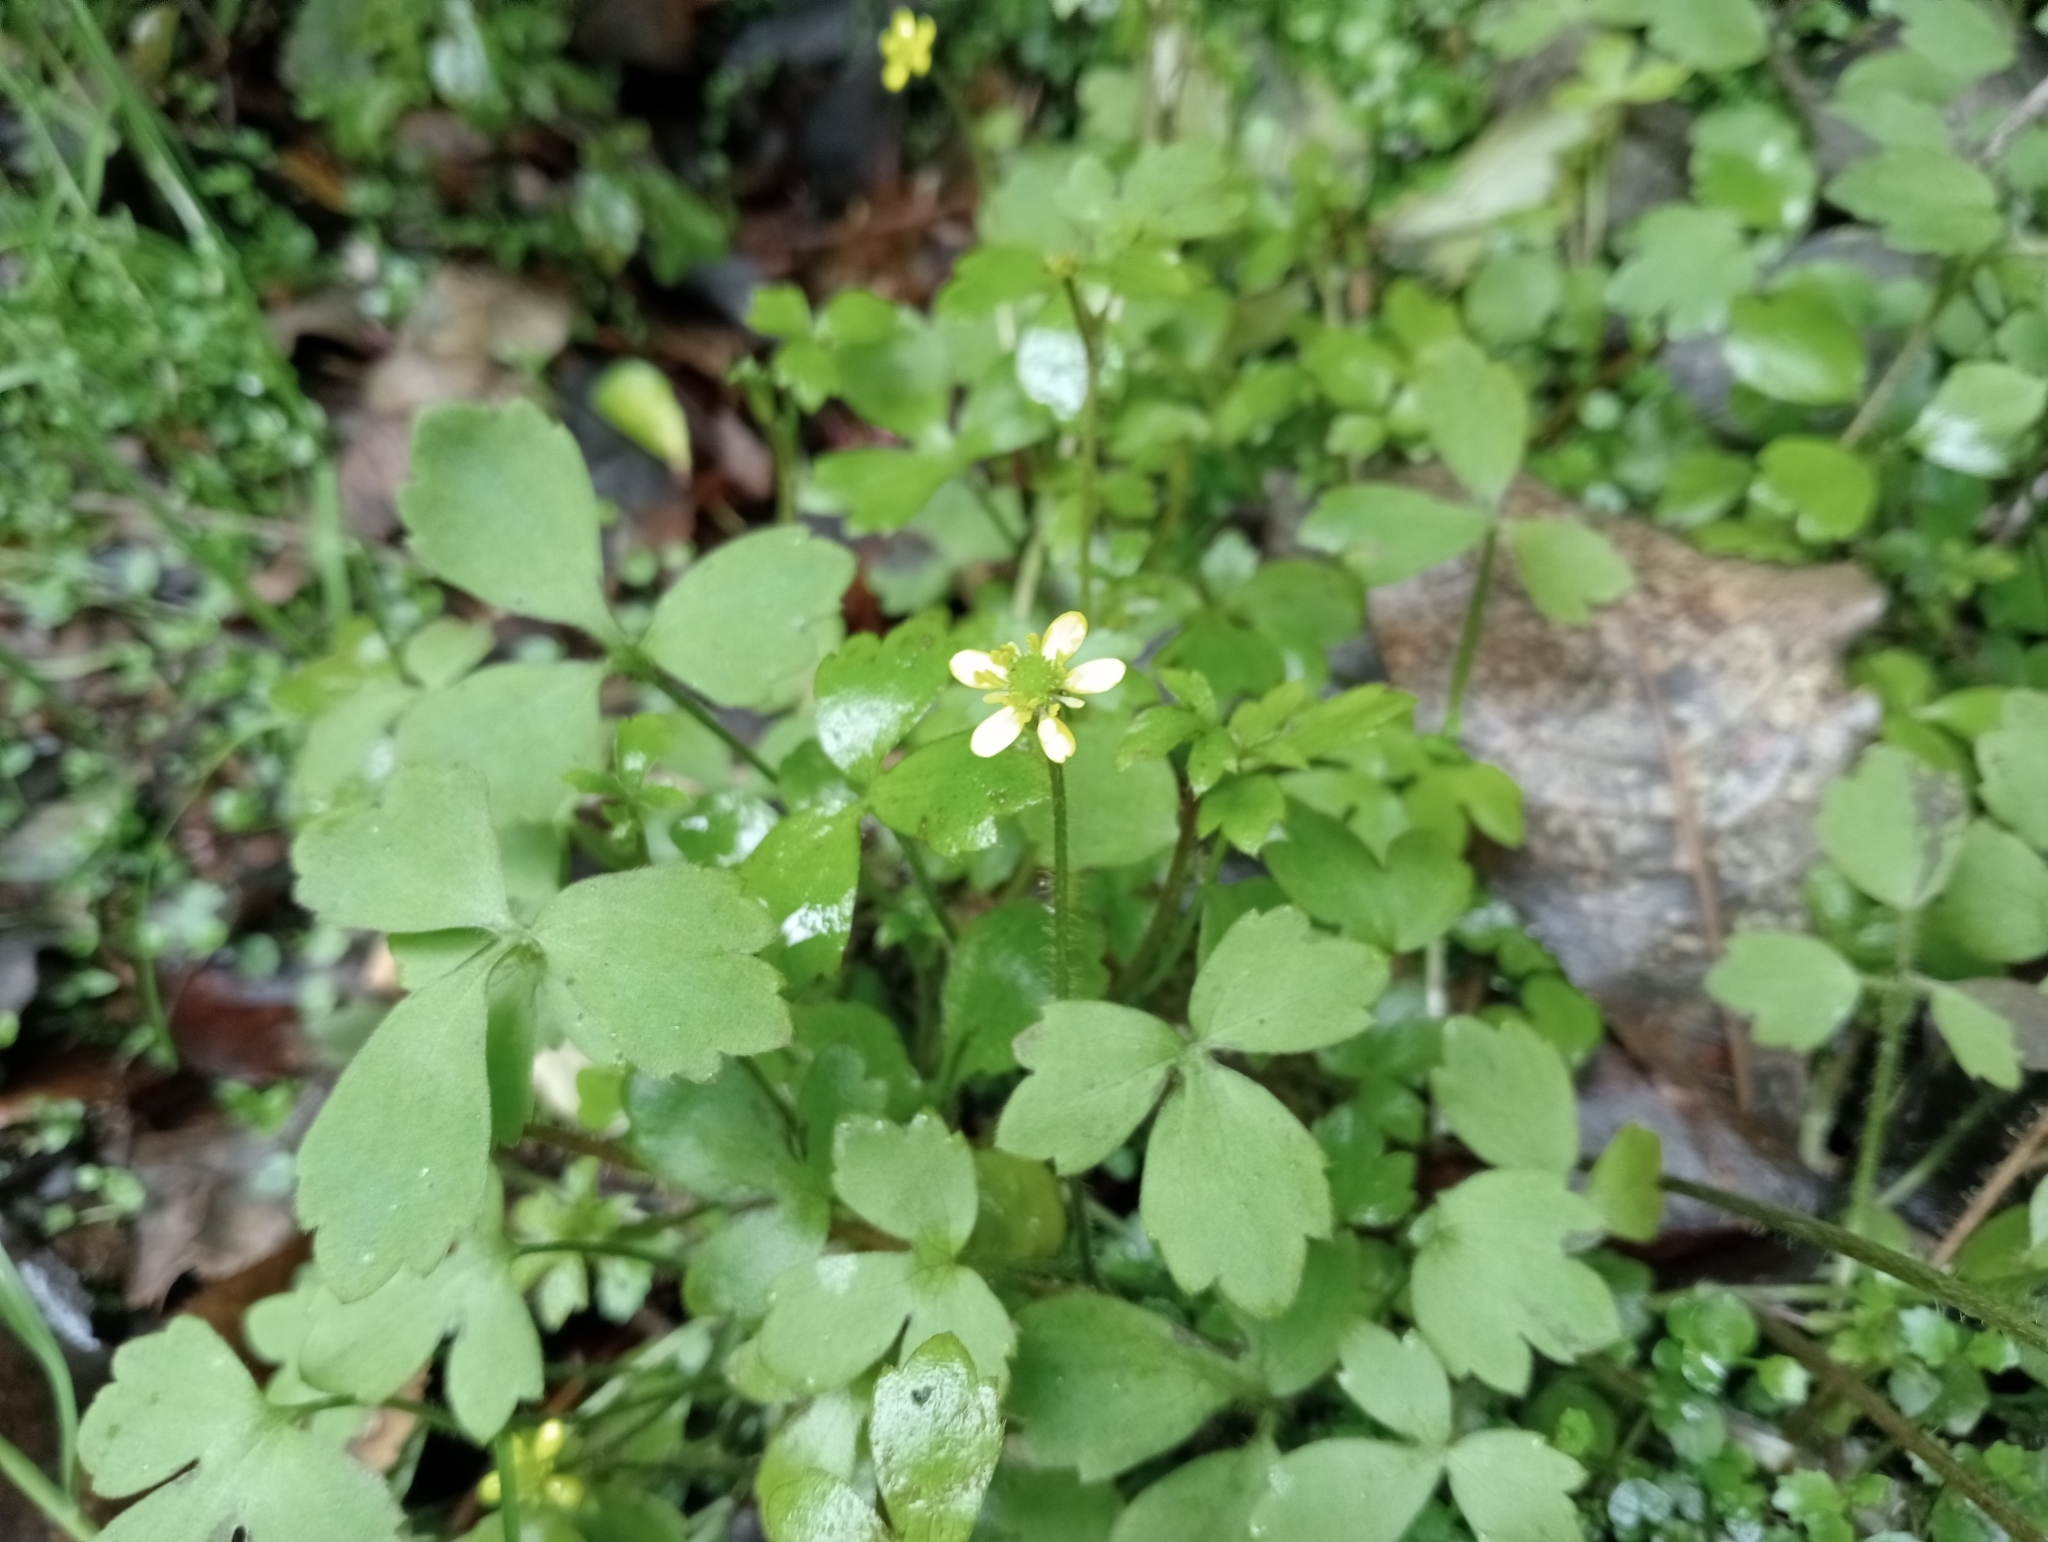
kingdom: Plantae
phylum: Tracheophyta
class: Magnoliopsida
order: Ranunculales
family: Ranunculaceae
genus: Ranunculus
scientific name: Ranunculus membranifolius
